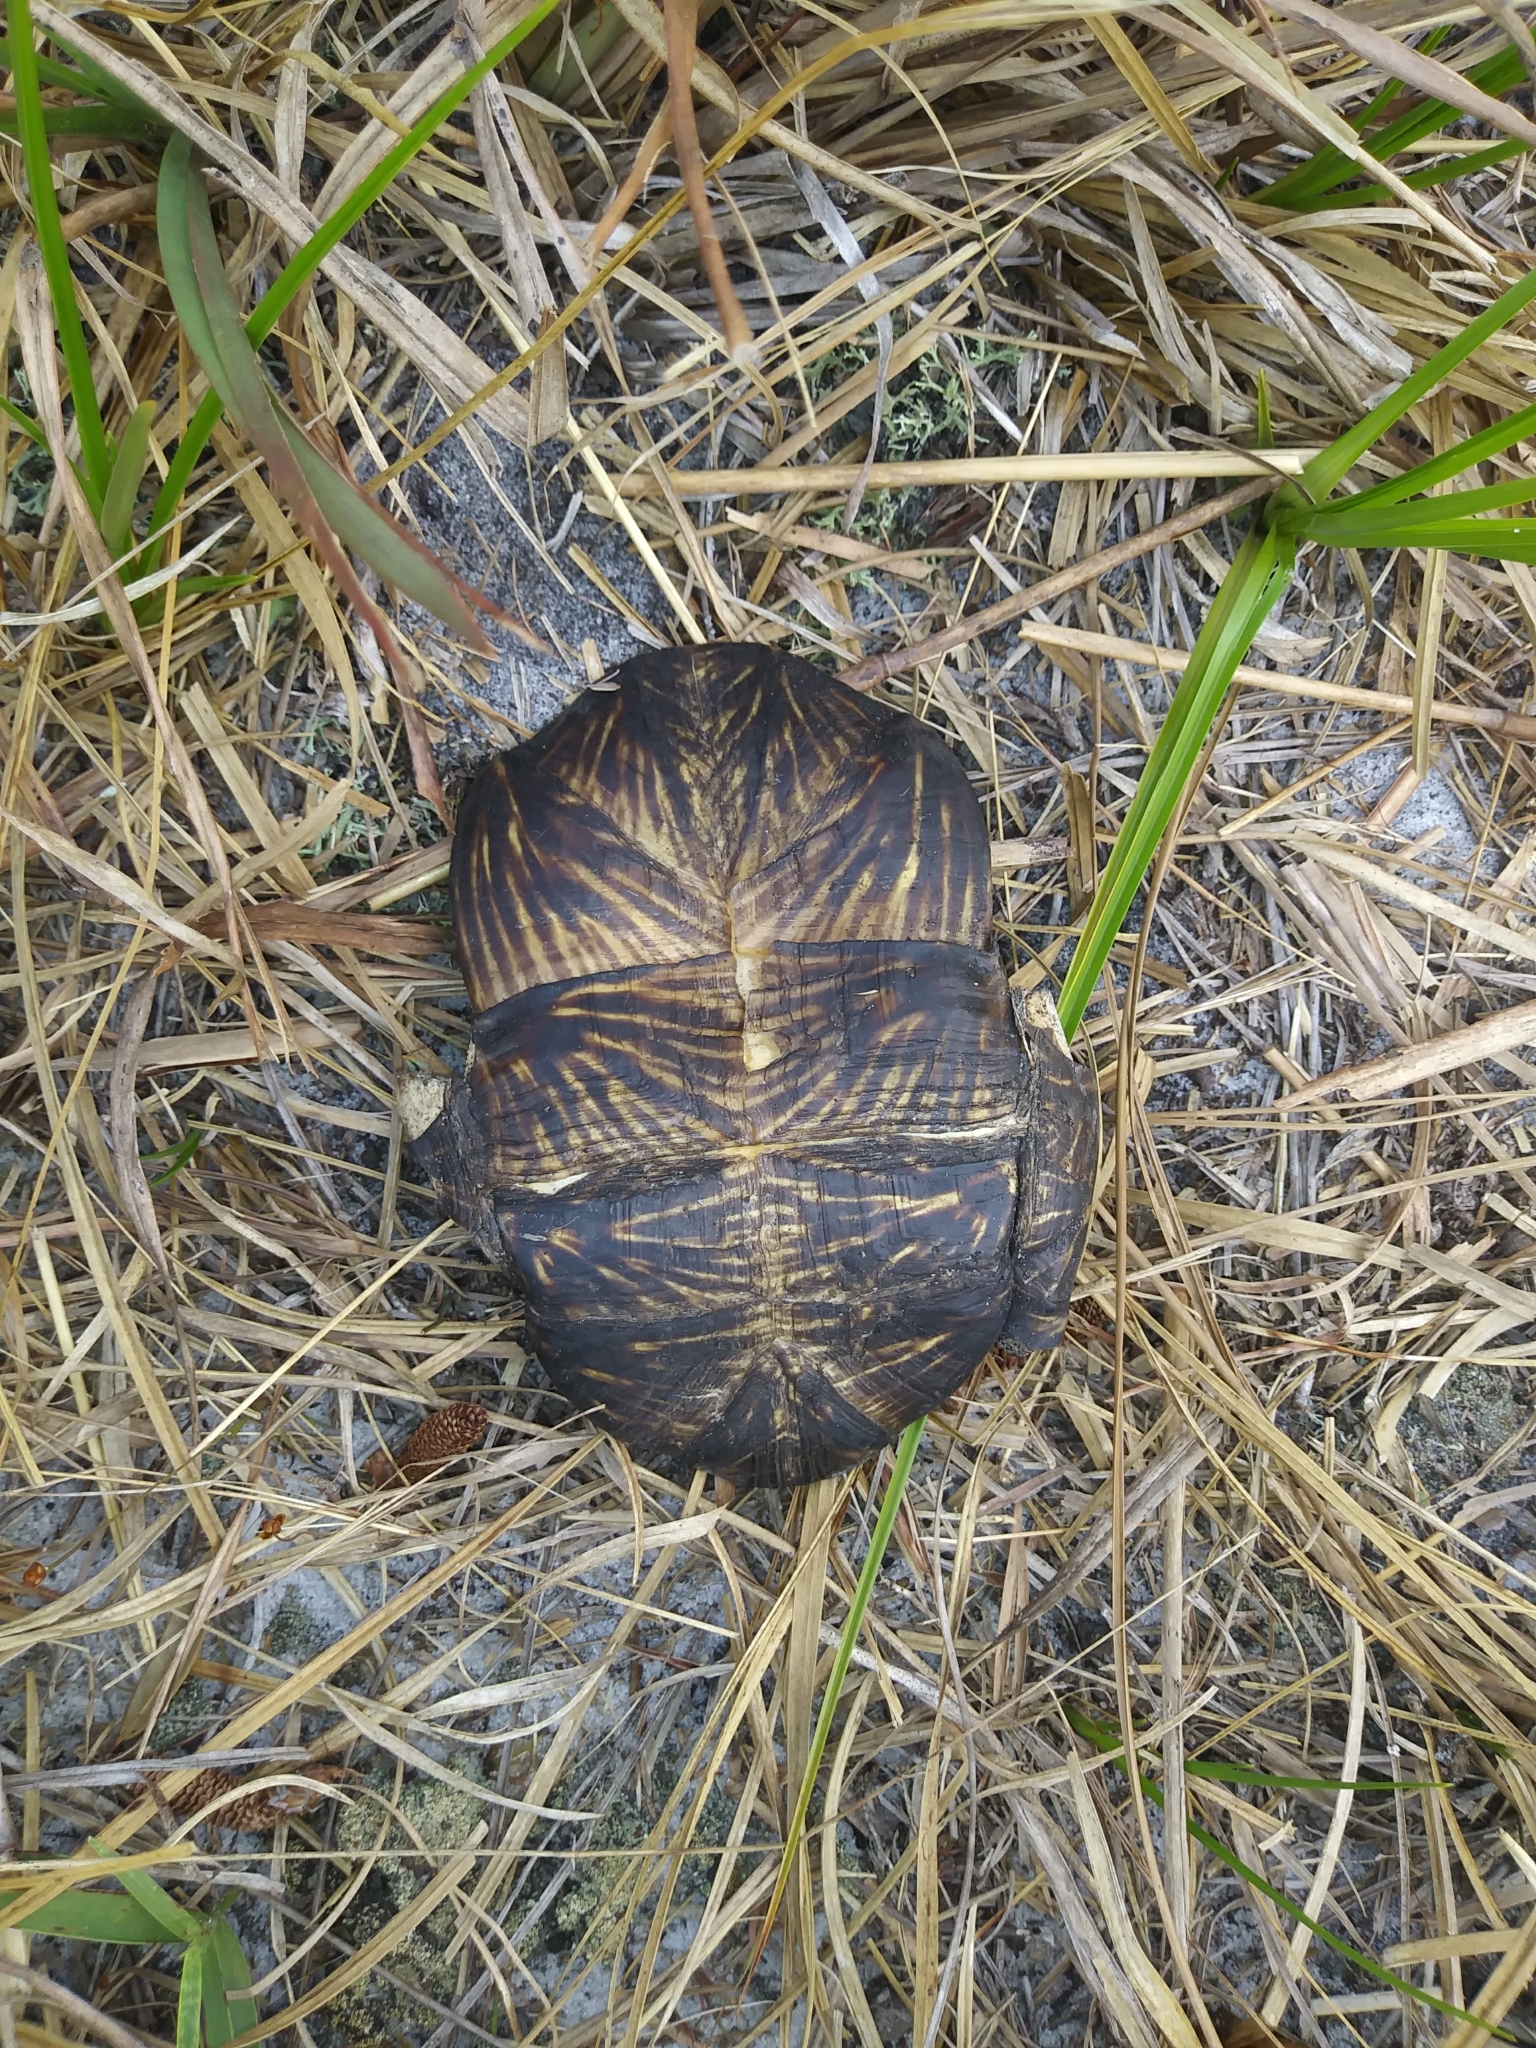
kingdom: Animalia
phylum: Chordata
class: Testudines
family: Emydidae
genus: Terrapene
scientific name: Terrapene carolina
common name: Common box turtle
